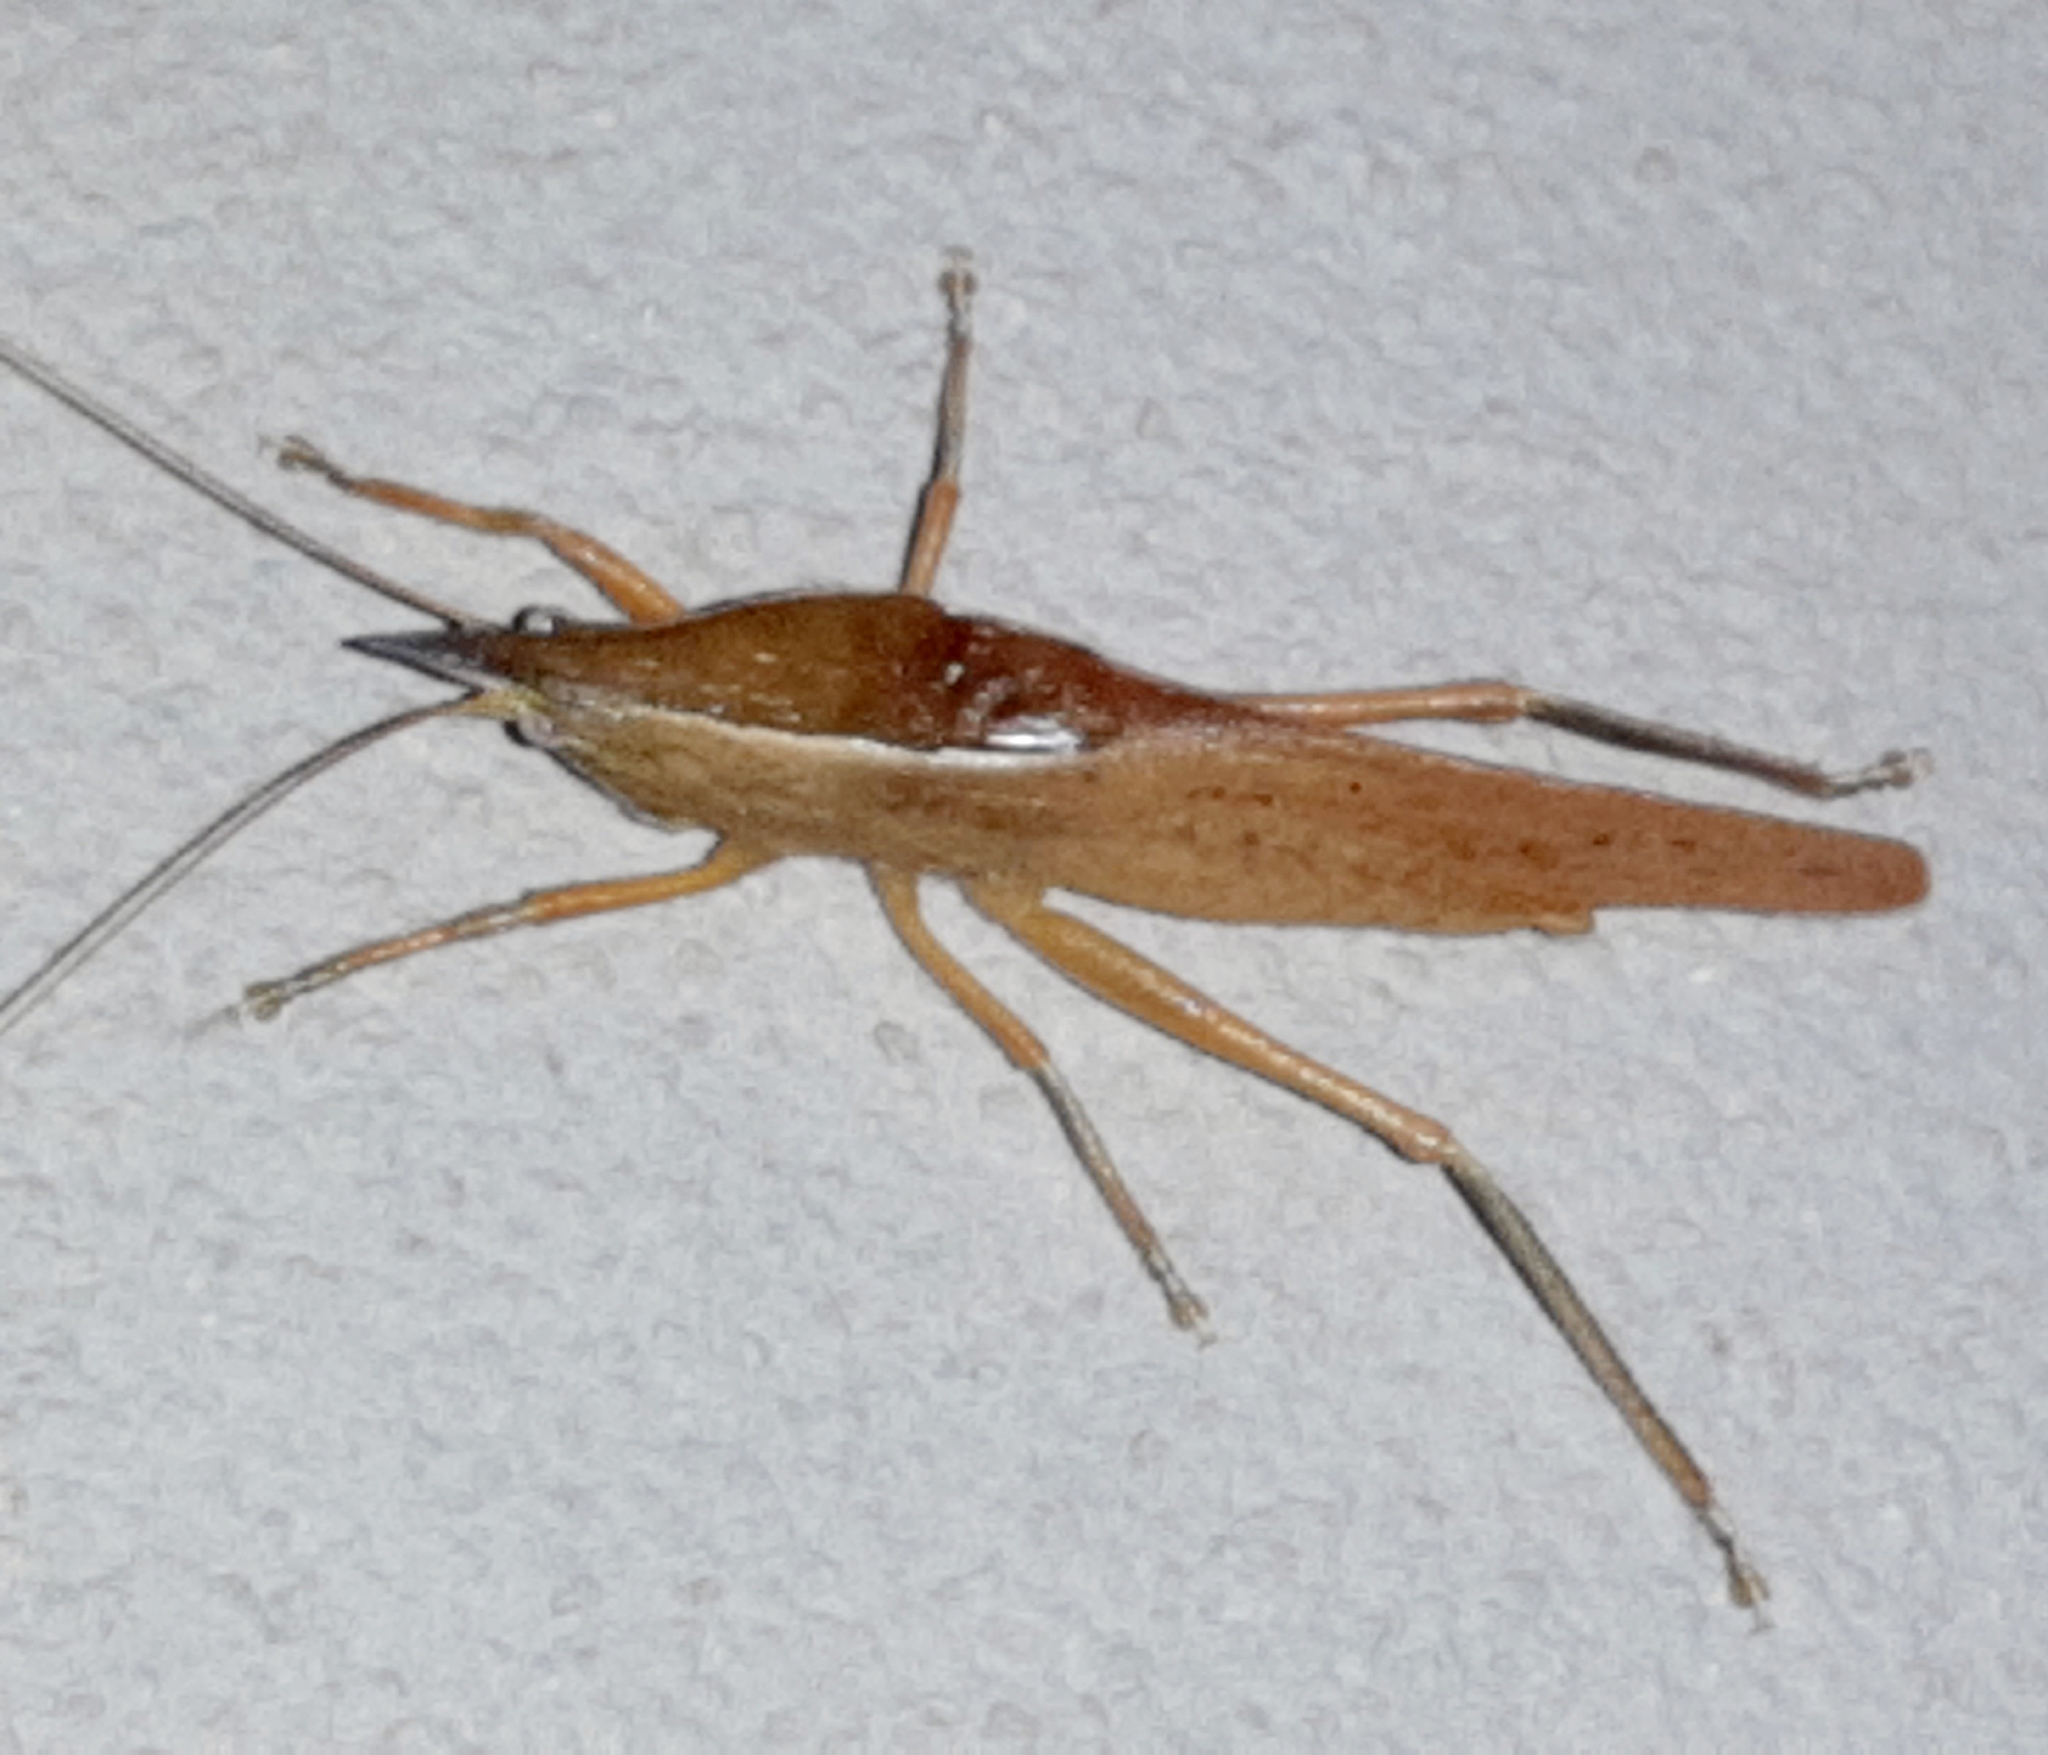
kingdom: Animalia
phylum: Arthropoda
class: Insecta
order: Orthoptera
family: Tettigoniidae
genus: Pyrgocorypha
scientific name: Pyrgocorypha rogersi
